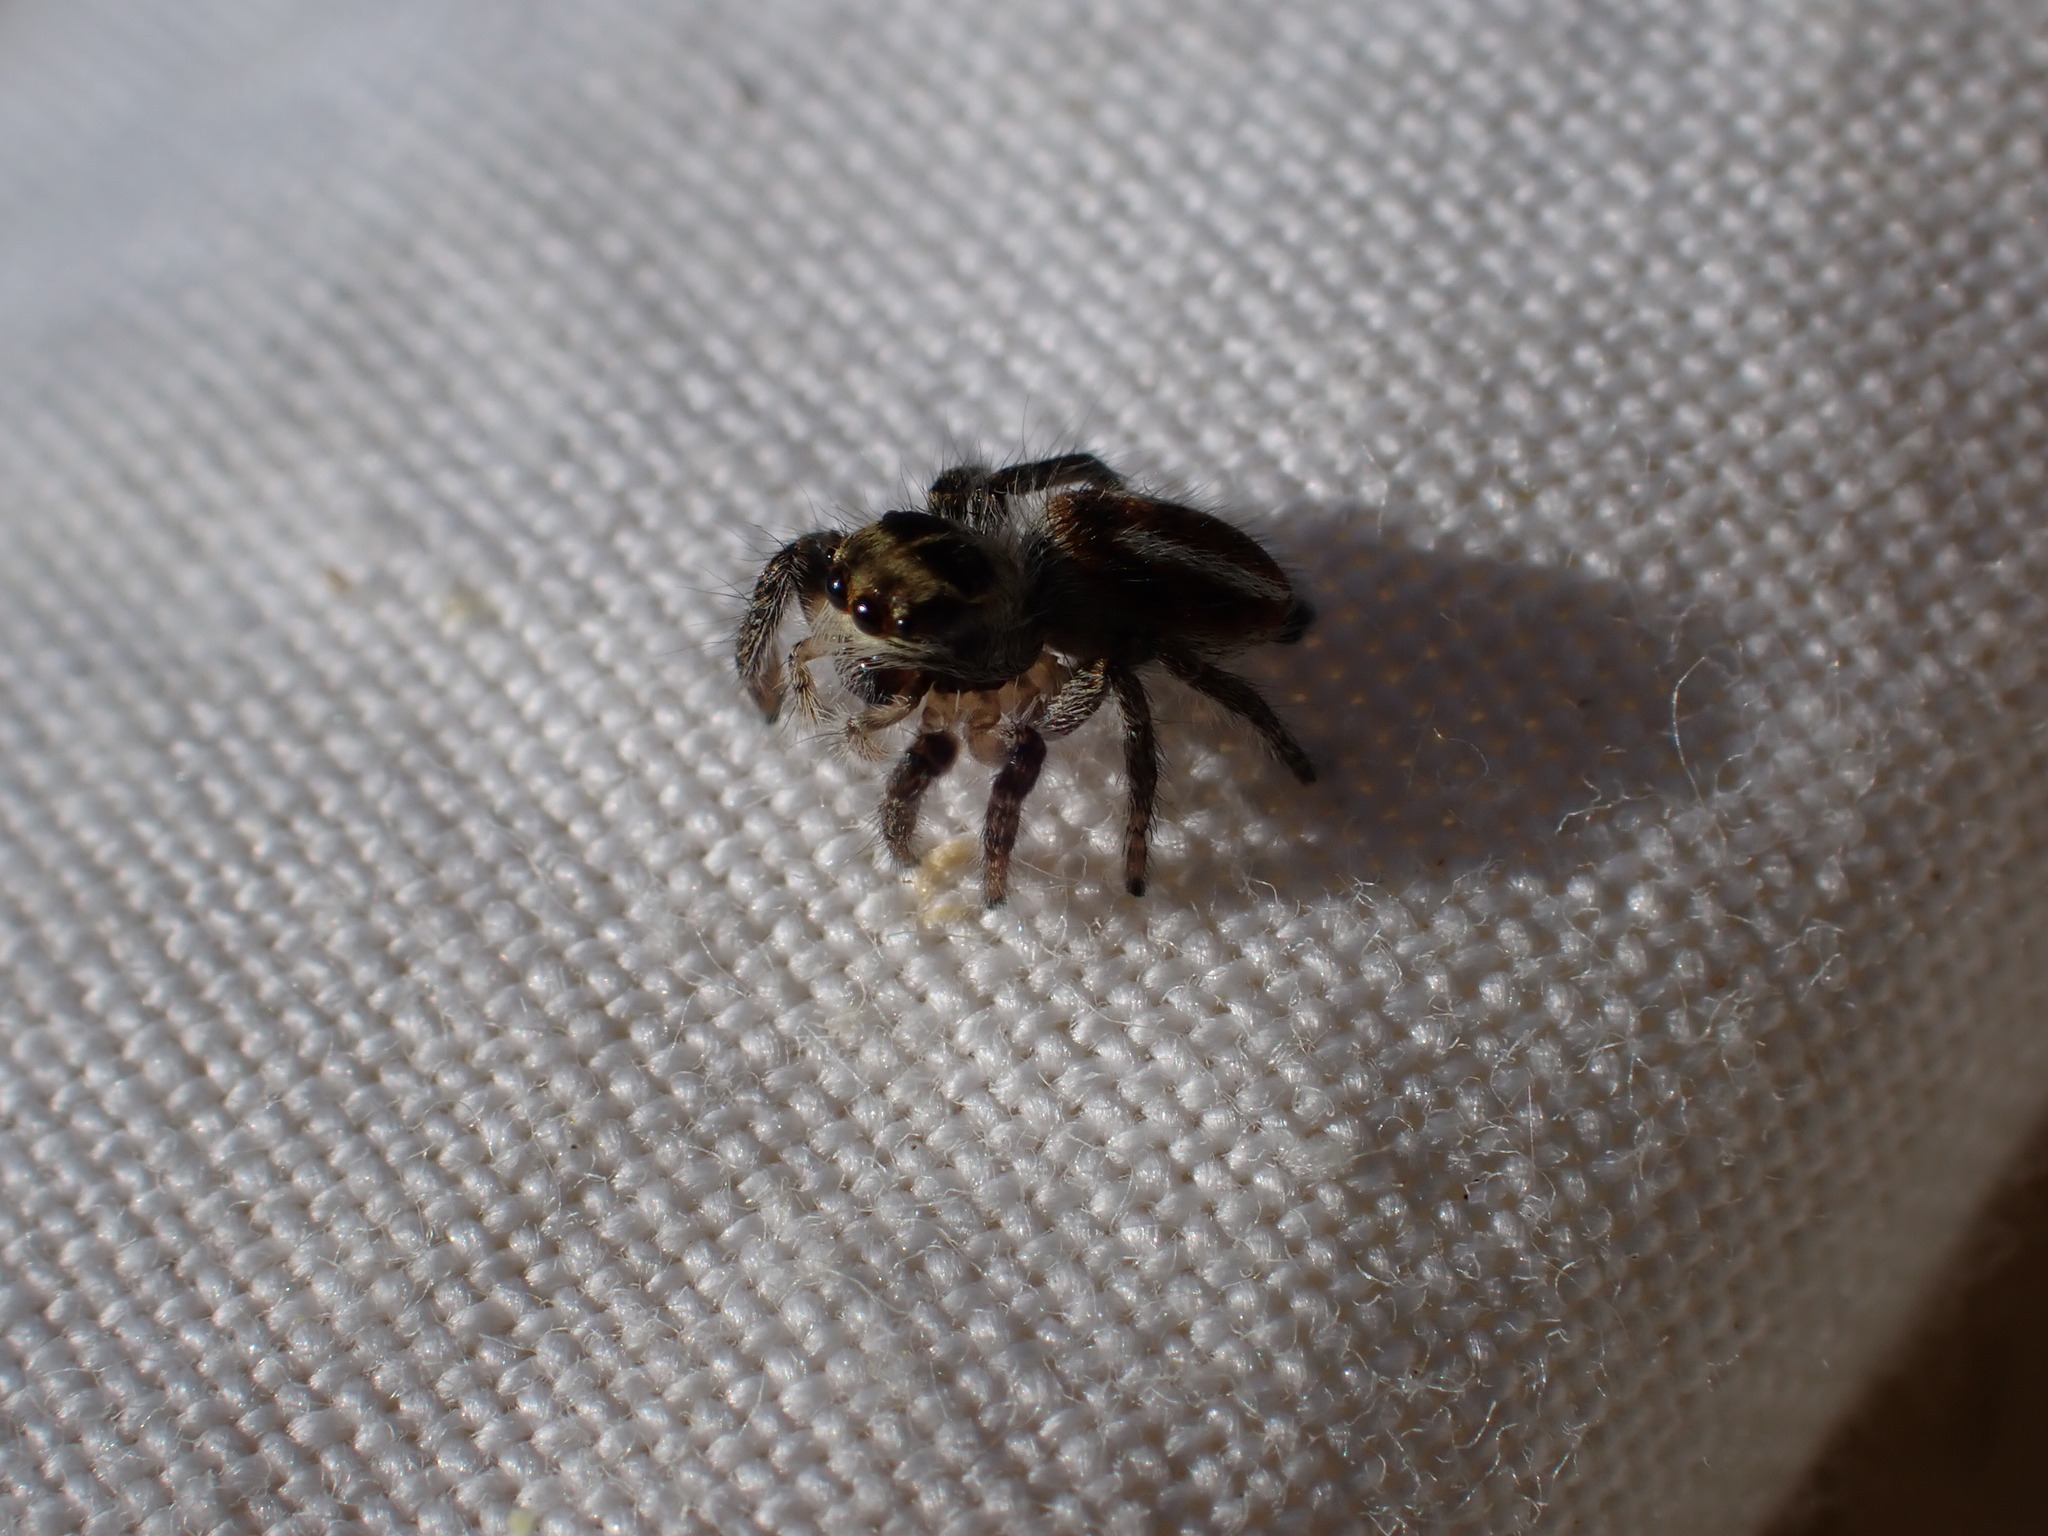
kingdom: Animalia
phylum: Arthropoda
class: Arachnida
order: Araneae
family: Salticidae
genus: Philaeus
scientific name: Philaeus chrysops
